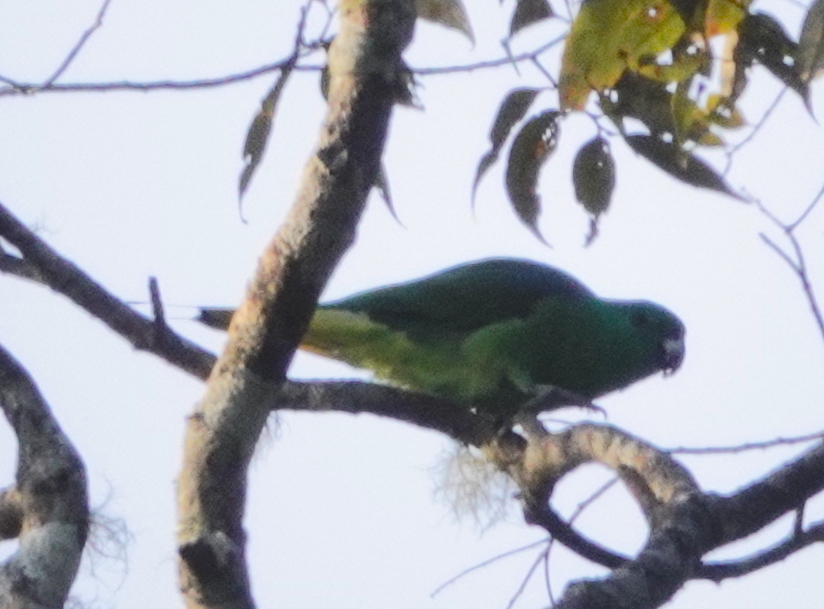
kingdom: Animalia
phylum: Chordata
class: Aves
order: Psittaciformes
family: Psittacidae
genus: Prioniturus
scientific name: Prioniturus mada
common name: Buru racket-tail
